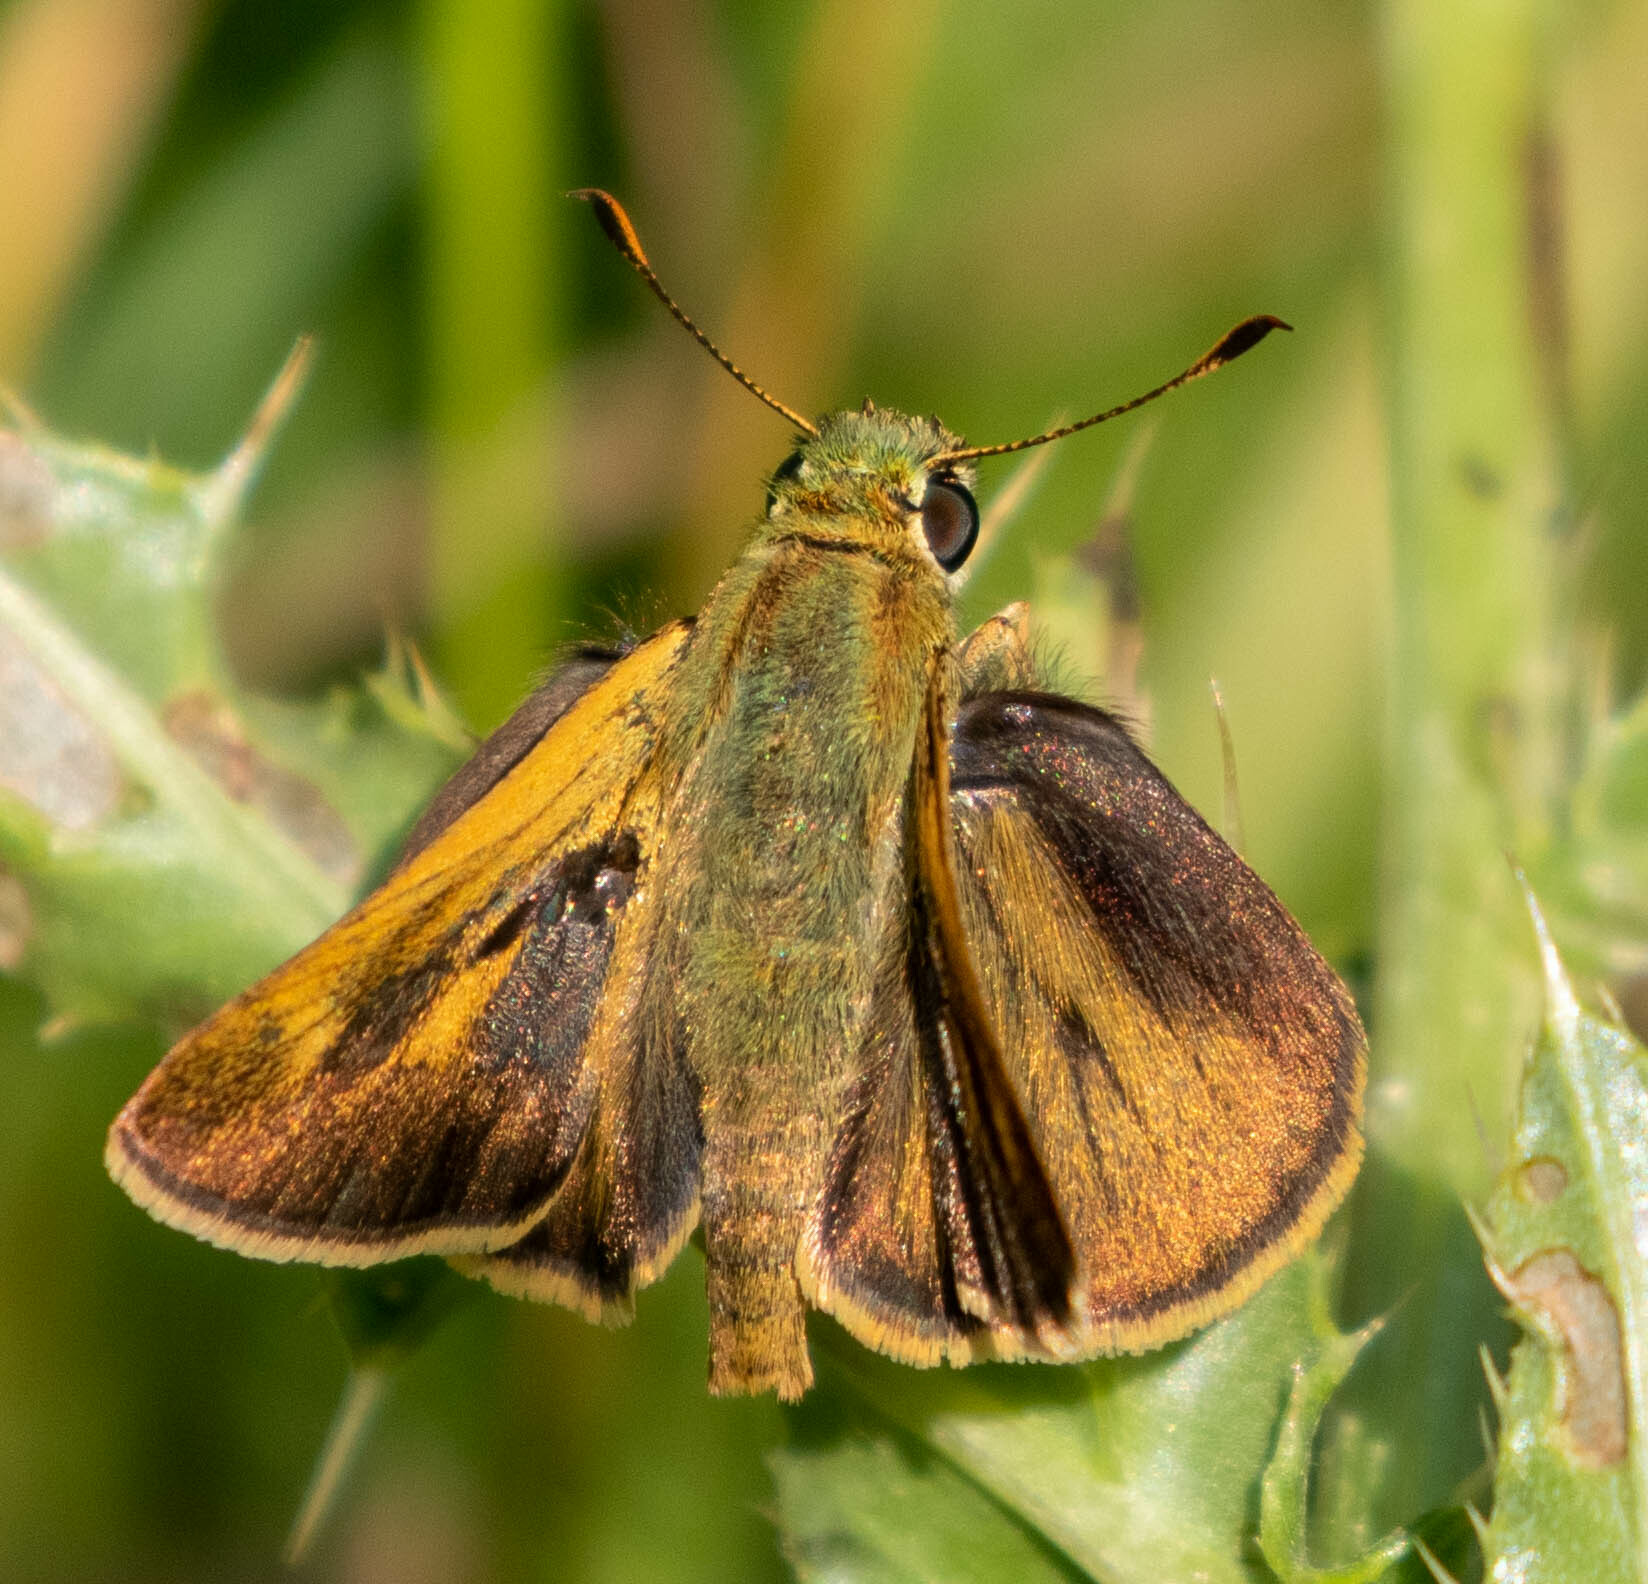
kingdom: Animalia
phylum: Arthropoda
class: Insecta
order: Lepidoptera
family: Hesperiidae
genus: Polites
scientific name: Polites egeremet
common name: Northern broken-dash
